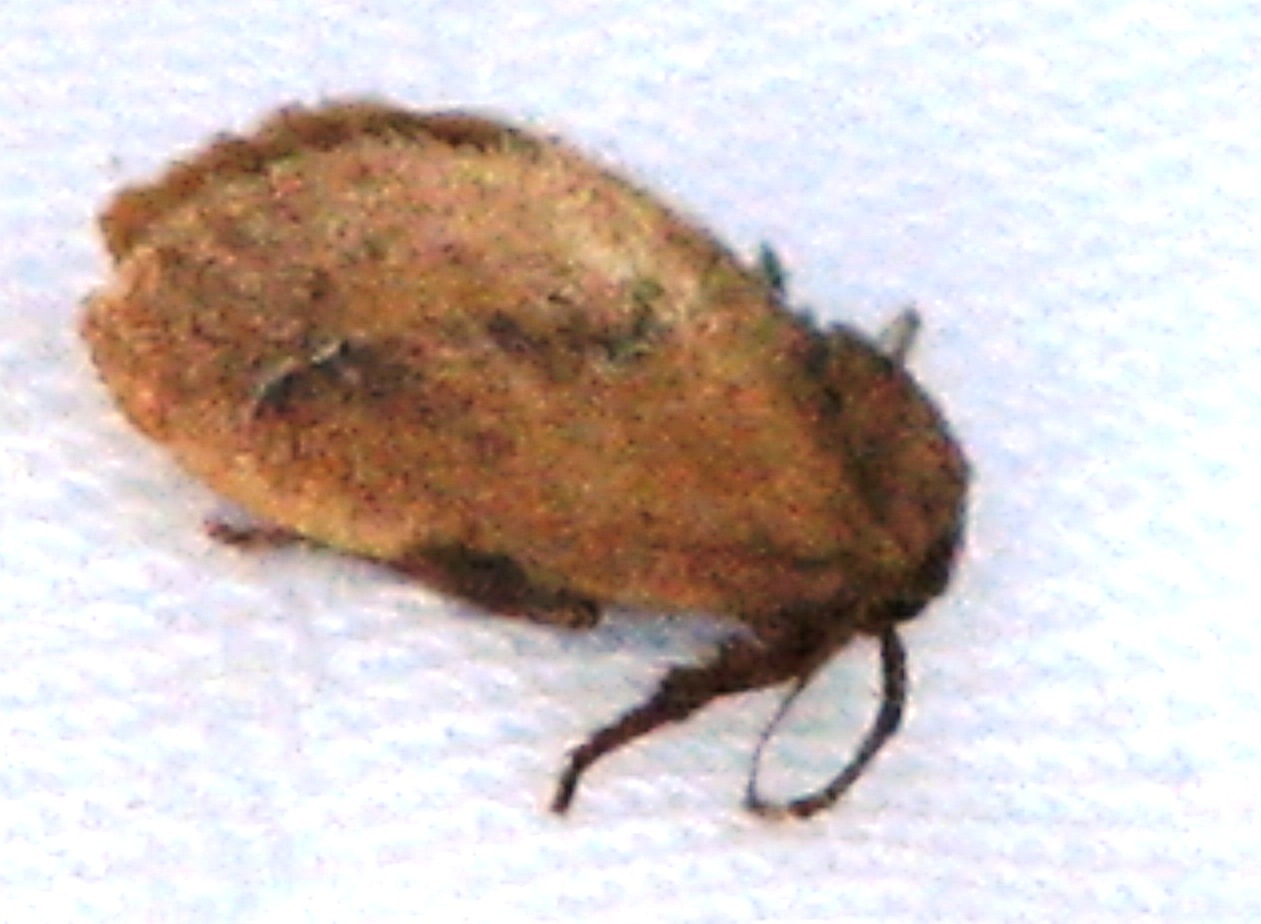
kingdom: Animalia
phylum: Arthropoda
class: Insecta
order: Lepidoptera
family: Limacodidae
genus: Adoneta
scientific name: Adoneta gemina
